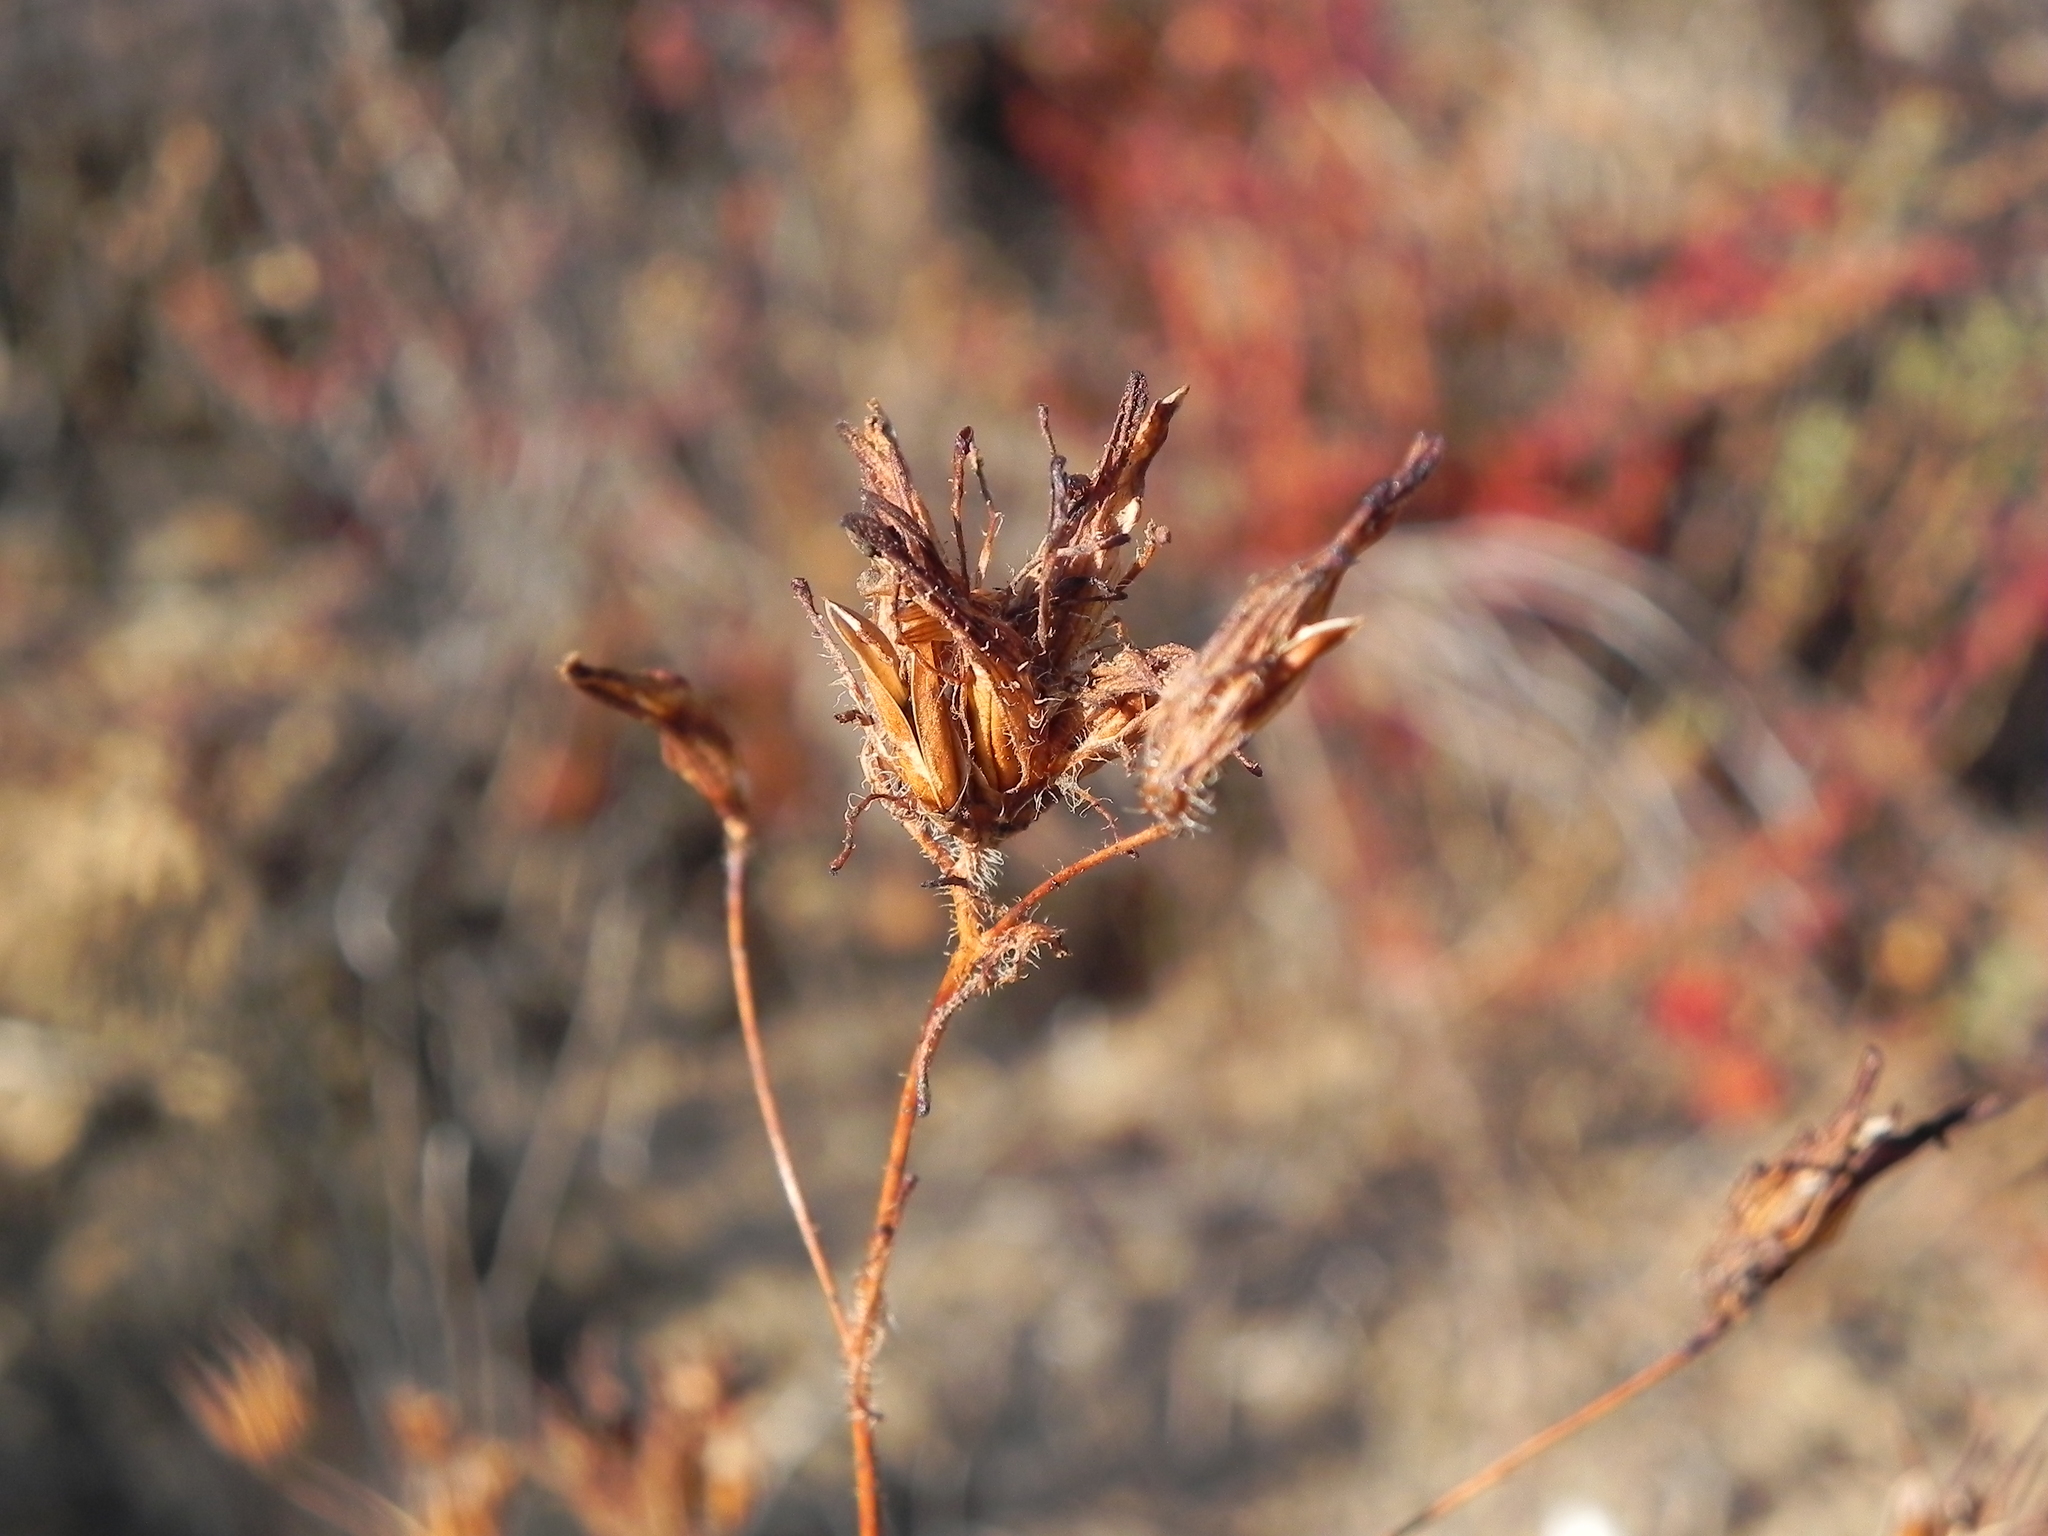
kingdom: Plantae
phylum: Tracheophyta
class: Magnoliopsida
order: Lamiales
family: Orobanchaceae
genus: Cordylanthus
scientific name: Cordylanthus rigidus
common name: Stiff-branch bird's-beak
